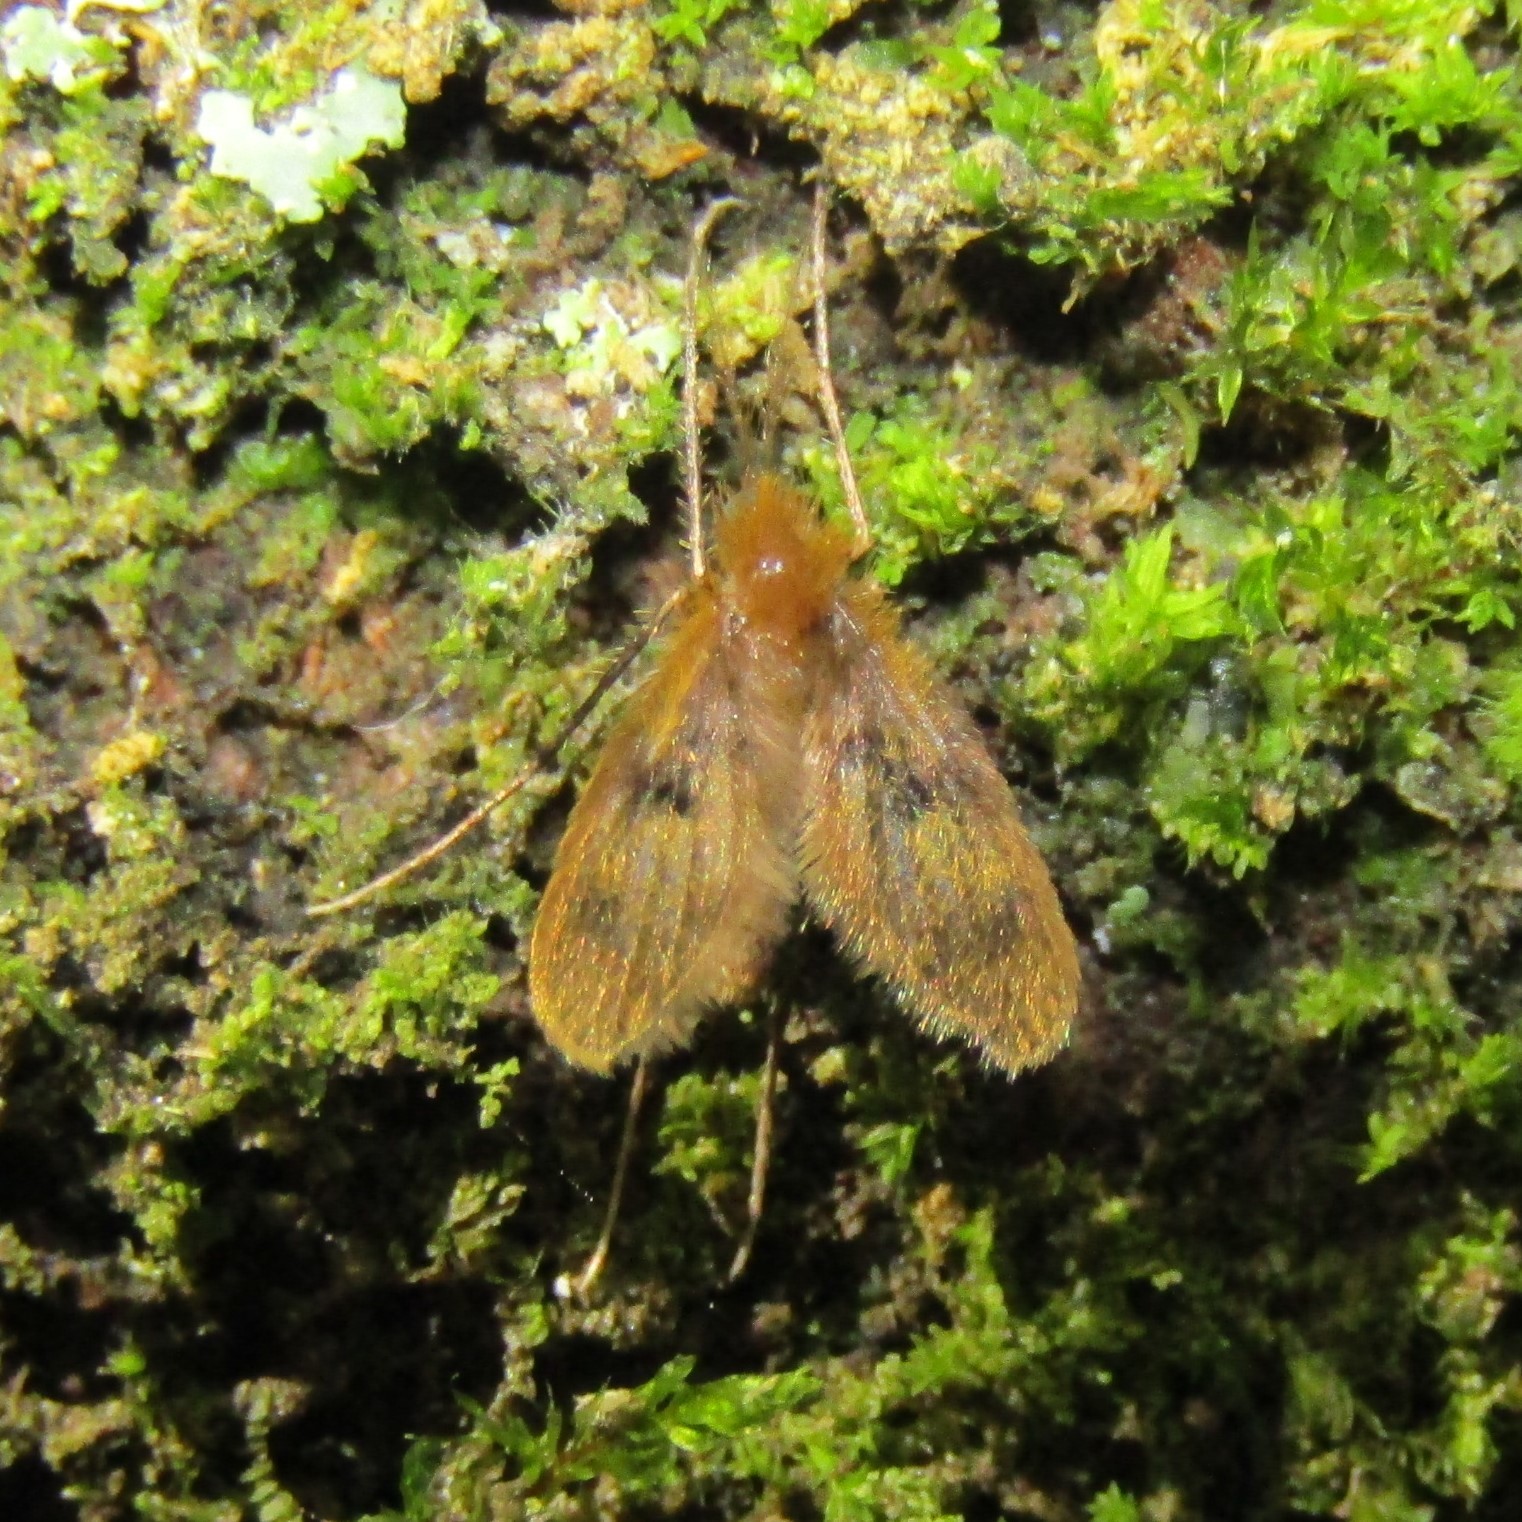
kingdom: Animalia
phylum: Arthropoda
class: Insecta
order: Diptera
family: Psychodidae
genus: Notofairchildia
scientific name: Notofairchildia zelandiae
